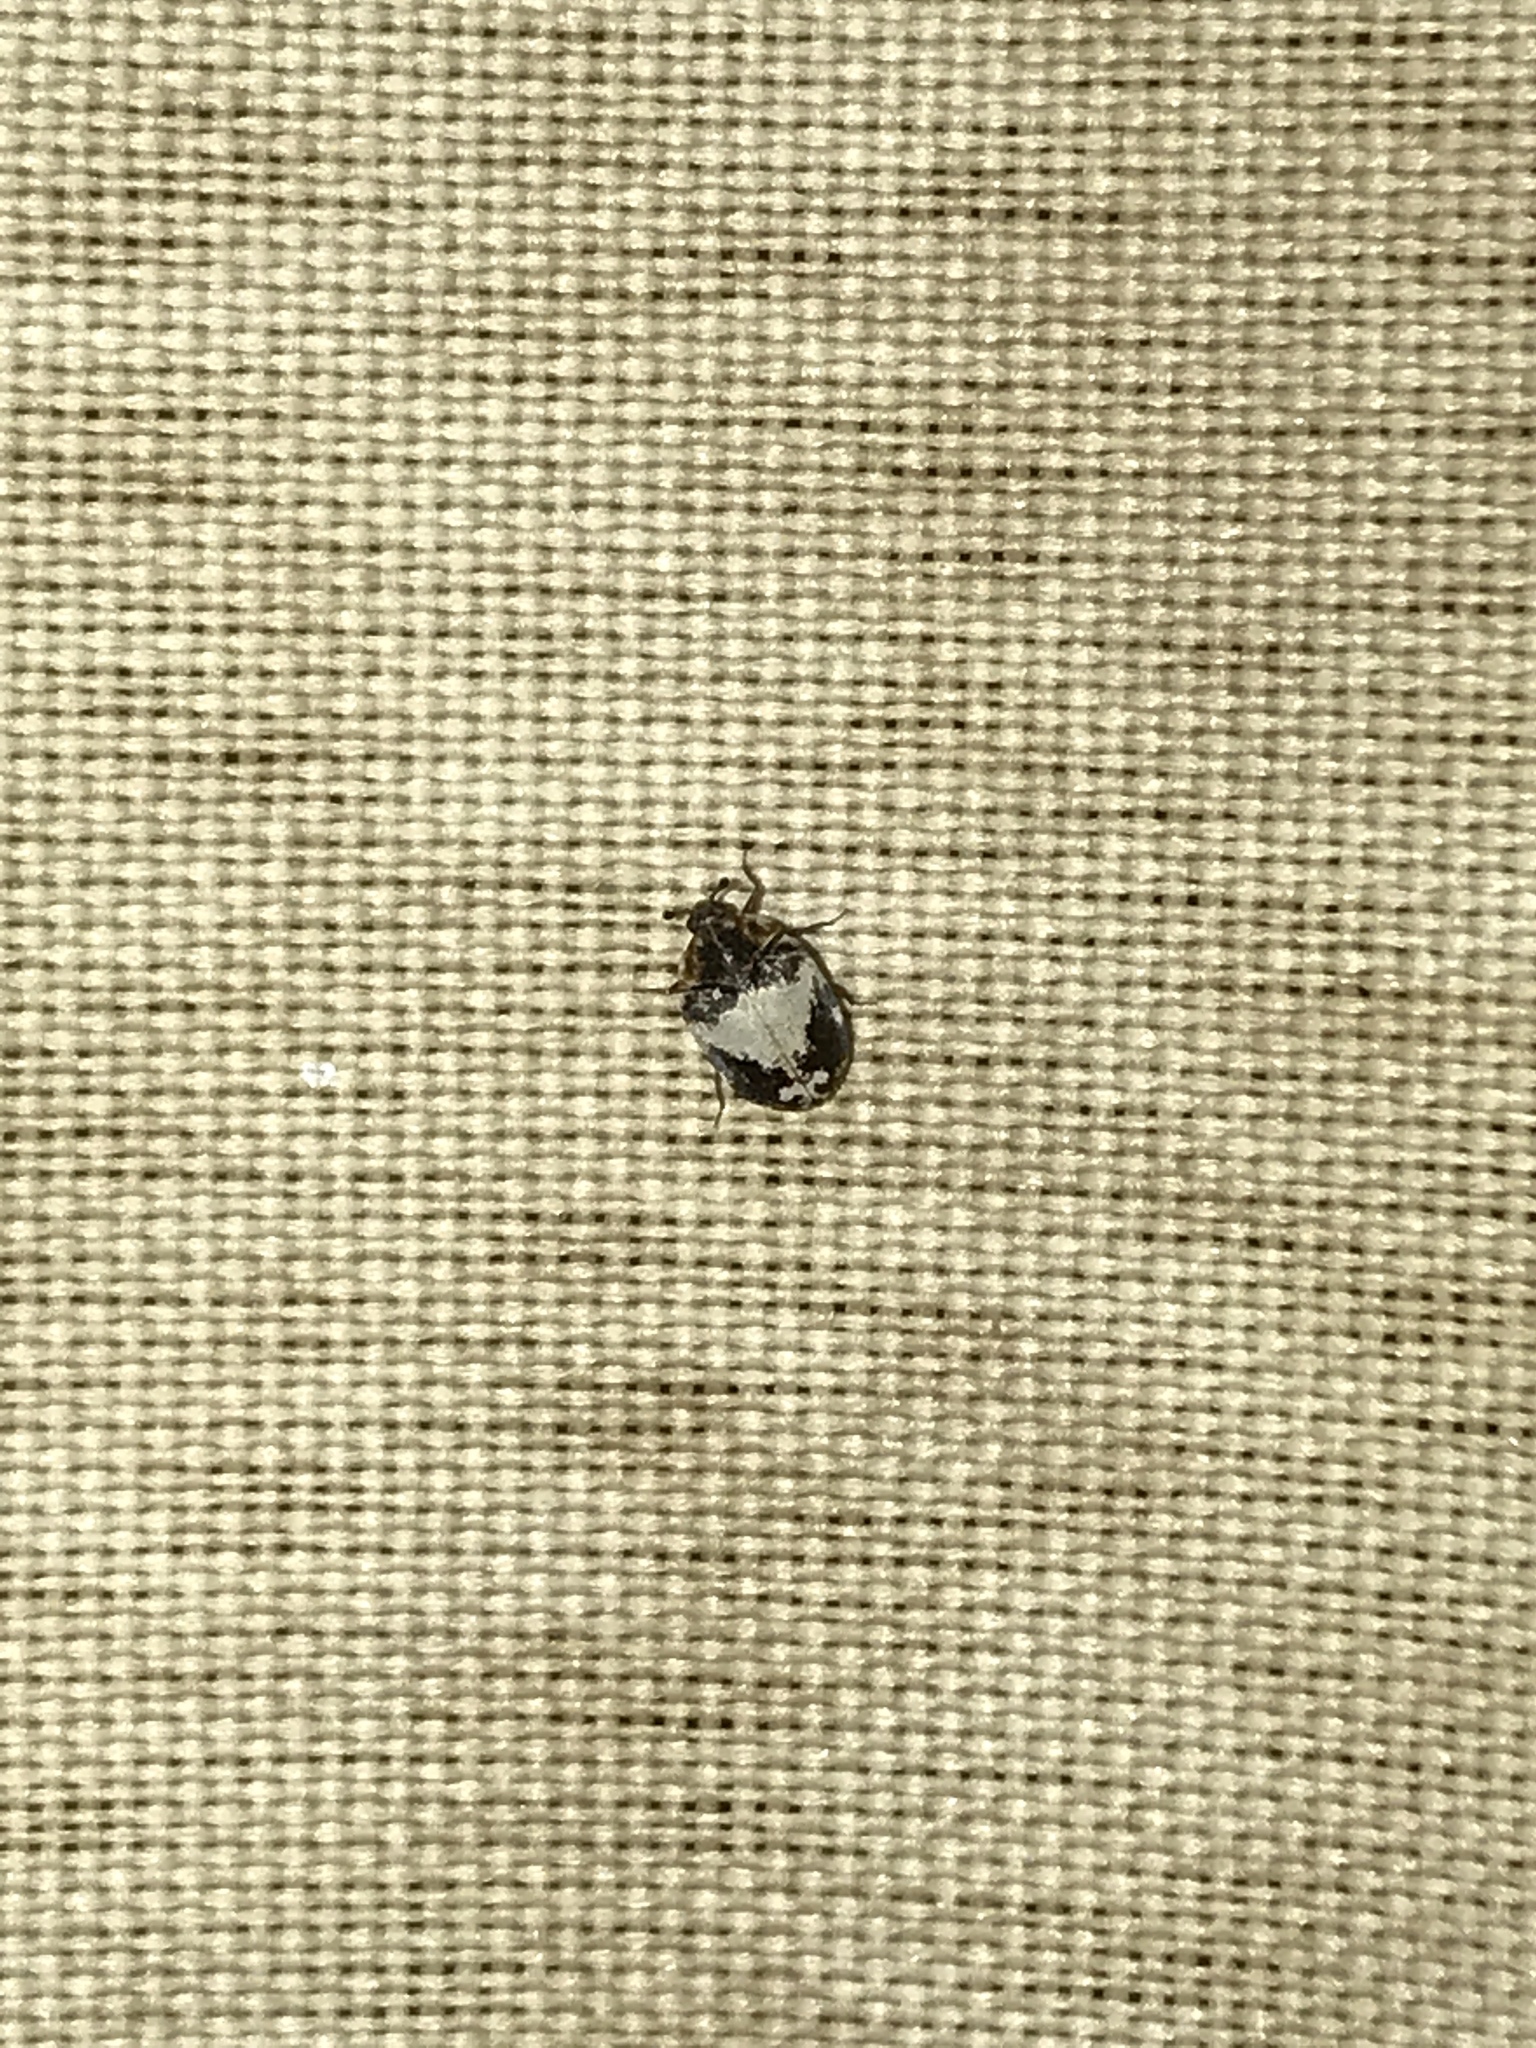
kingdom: Animalia
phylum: Arthropoda
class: Insecta
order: Coleoptera
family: Dermestidae
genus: Anthrenus
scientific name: Anthrenus sophonisba
